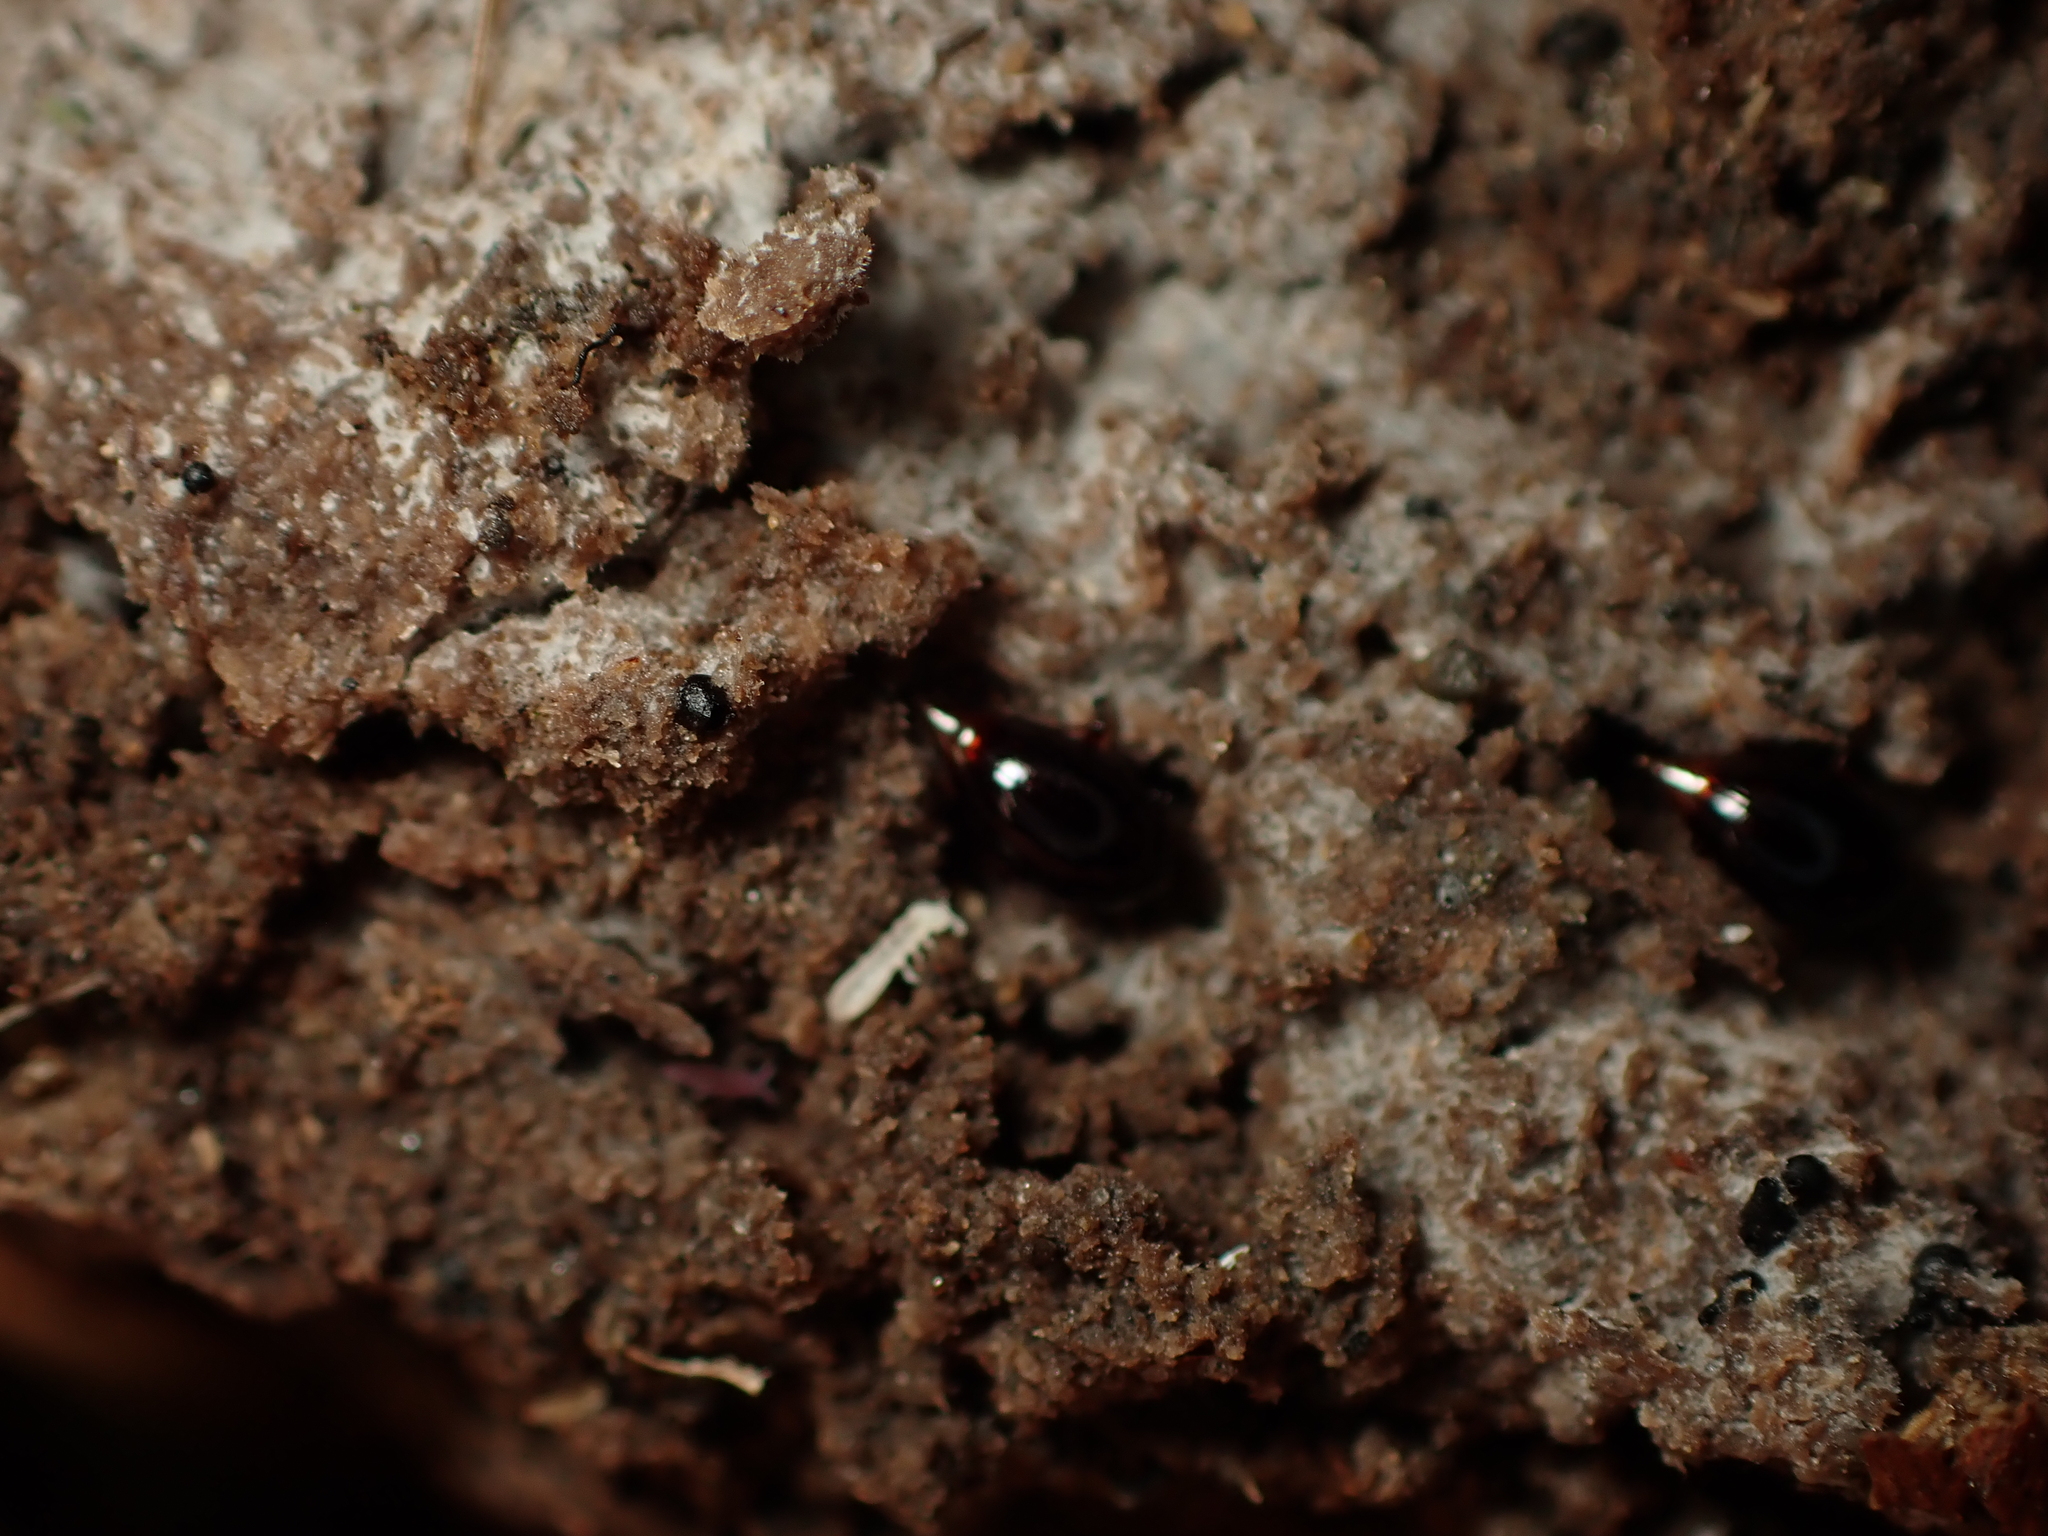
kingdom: Animalia
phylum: Arthropoda
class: Insecta
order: Coleoptera
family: Staphylinidae
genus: Brachynopus
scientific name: Brachynopus scutellaris
